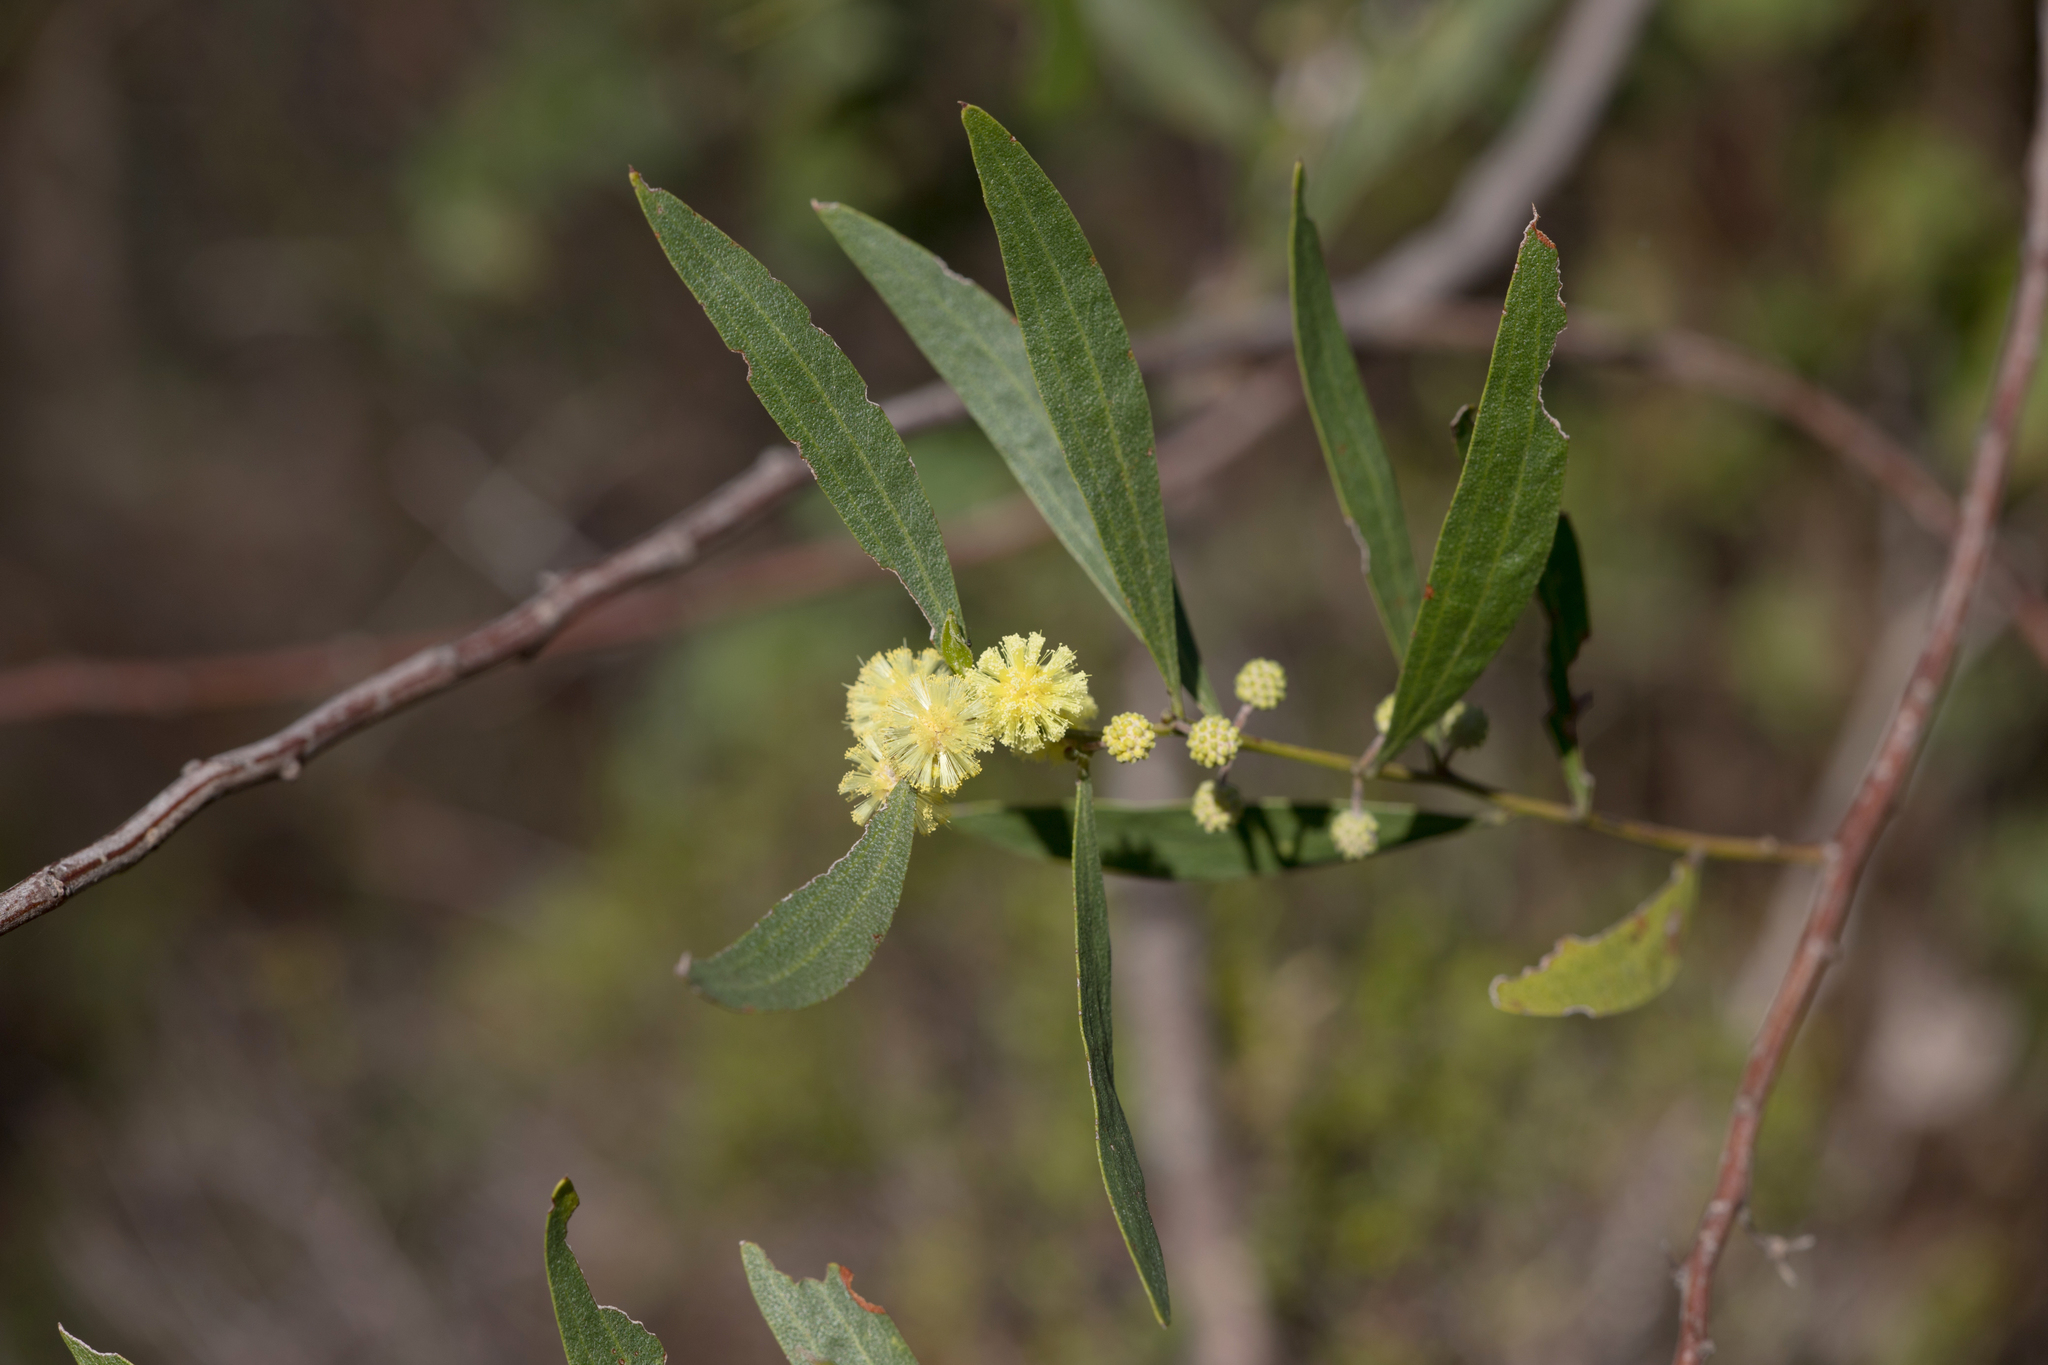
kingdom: Plantae
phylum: Tracheophyta
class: Magnoliopsida
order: Fabales
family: Fabaceae
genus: Acacia
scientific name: Acacia verniciflua
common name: Varnish wattle
